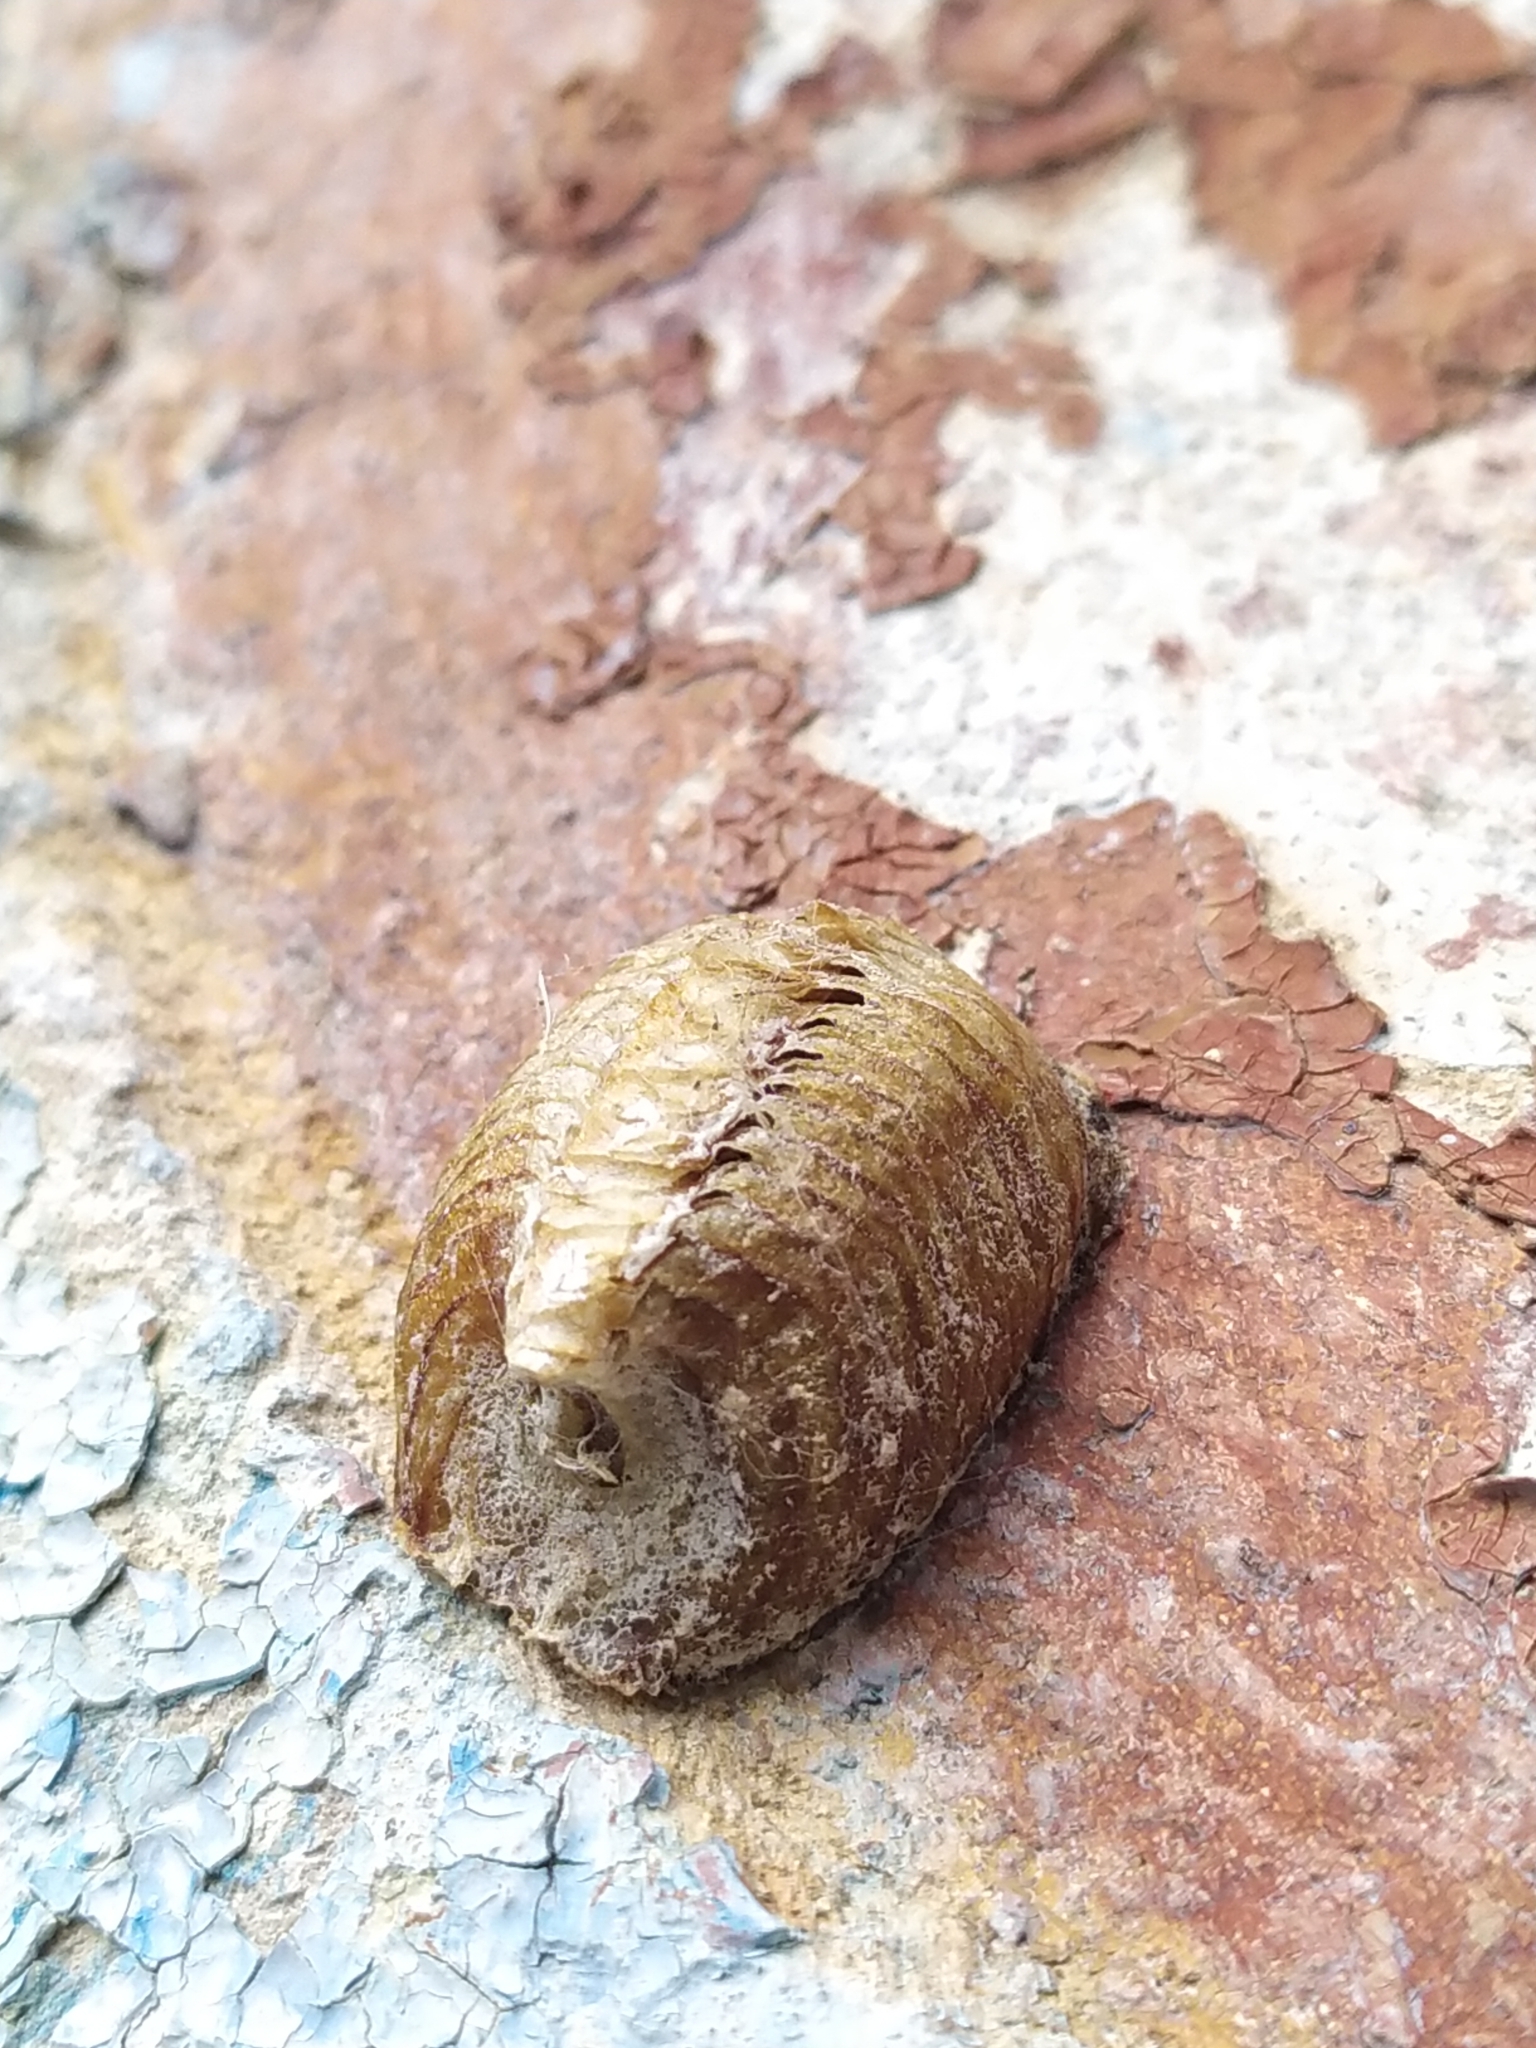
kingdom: Animalia
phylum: Arthropoda
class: Insecta
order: Mantodea
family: Mantidae
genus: Hierodula
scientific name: Hierodula transcaucasica
